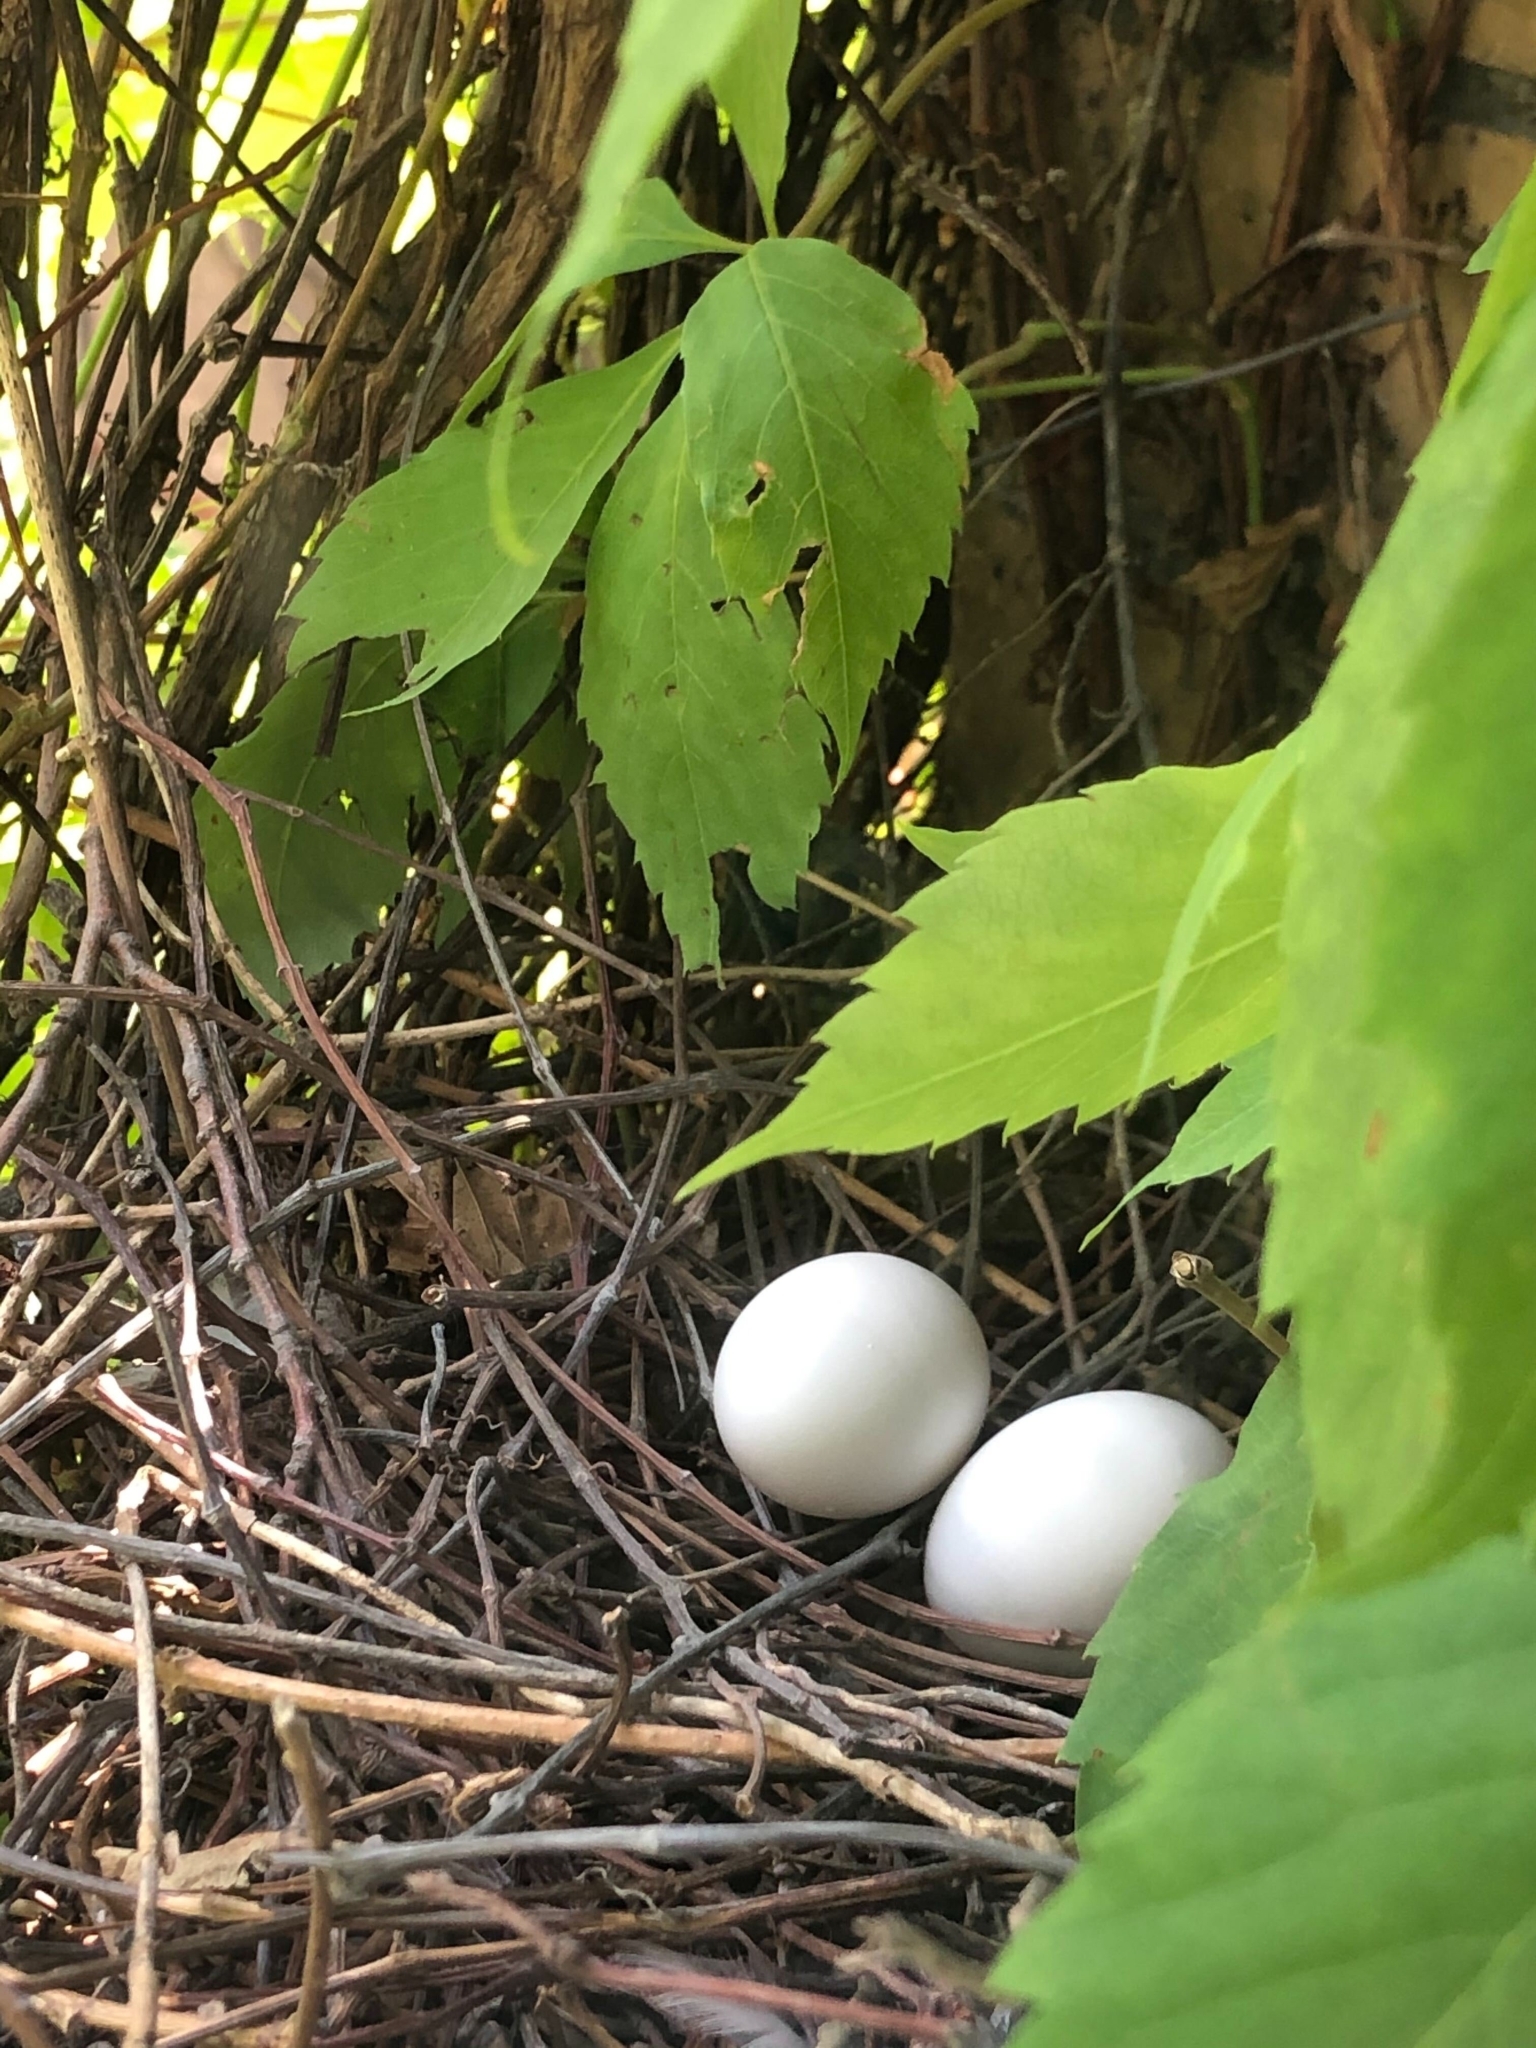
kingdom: Animalia
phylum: Chordata
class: Aves
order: Columbiformes
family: Columbidae
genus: Columba
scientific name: Columba livia
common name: Rock pigeon
